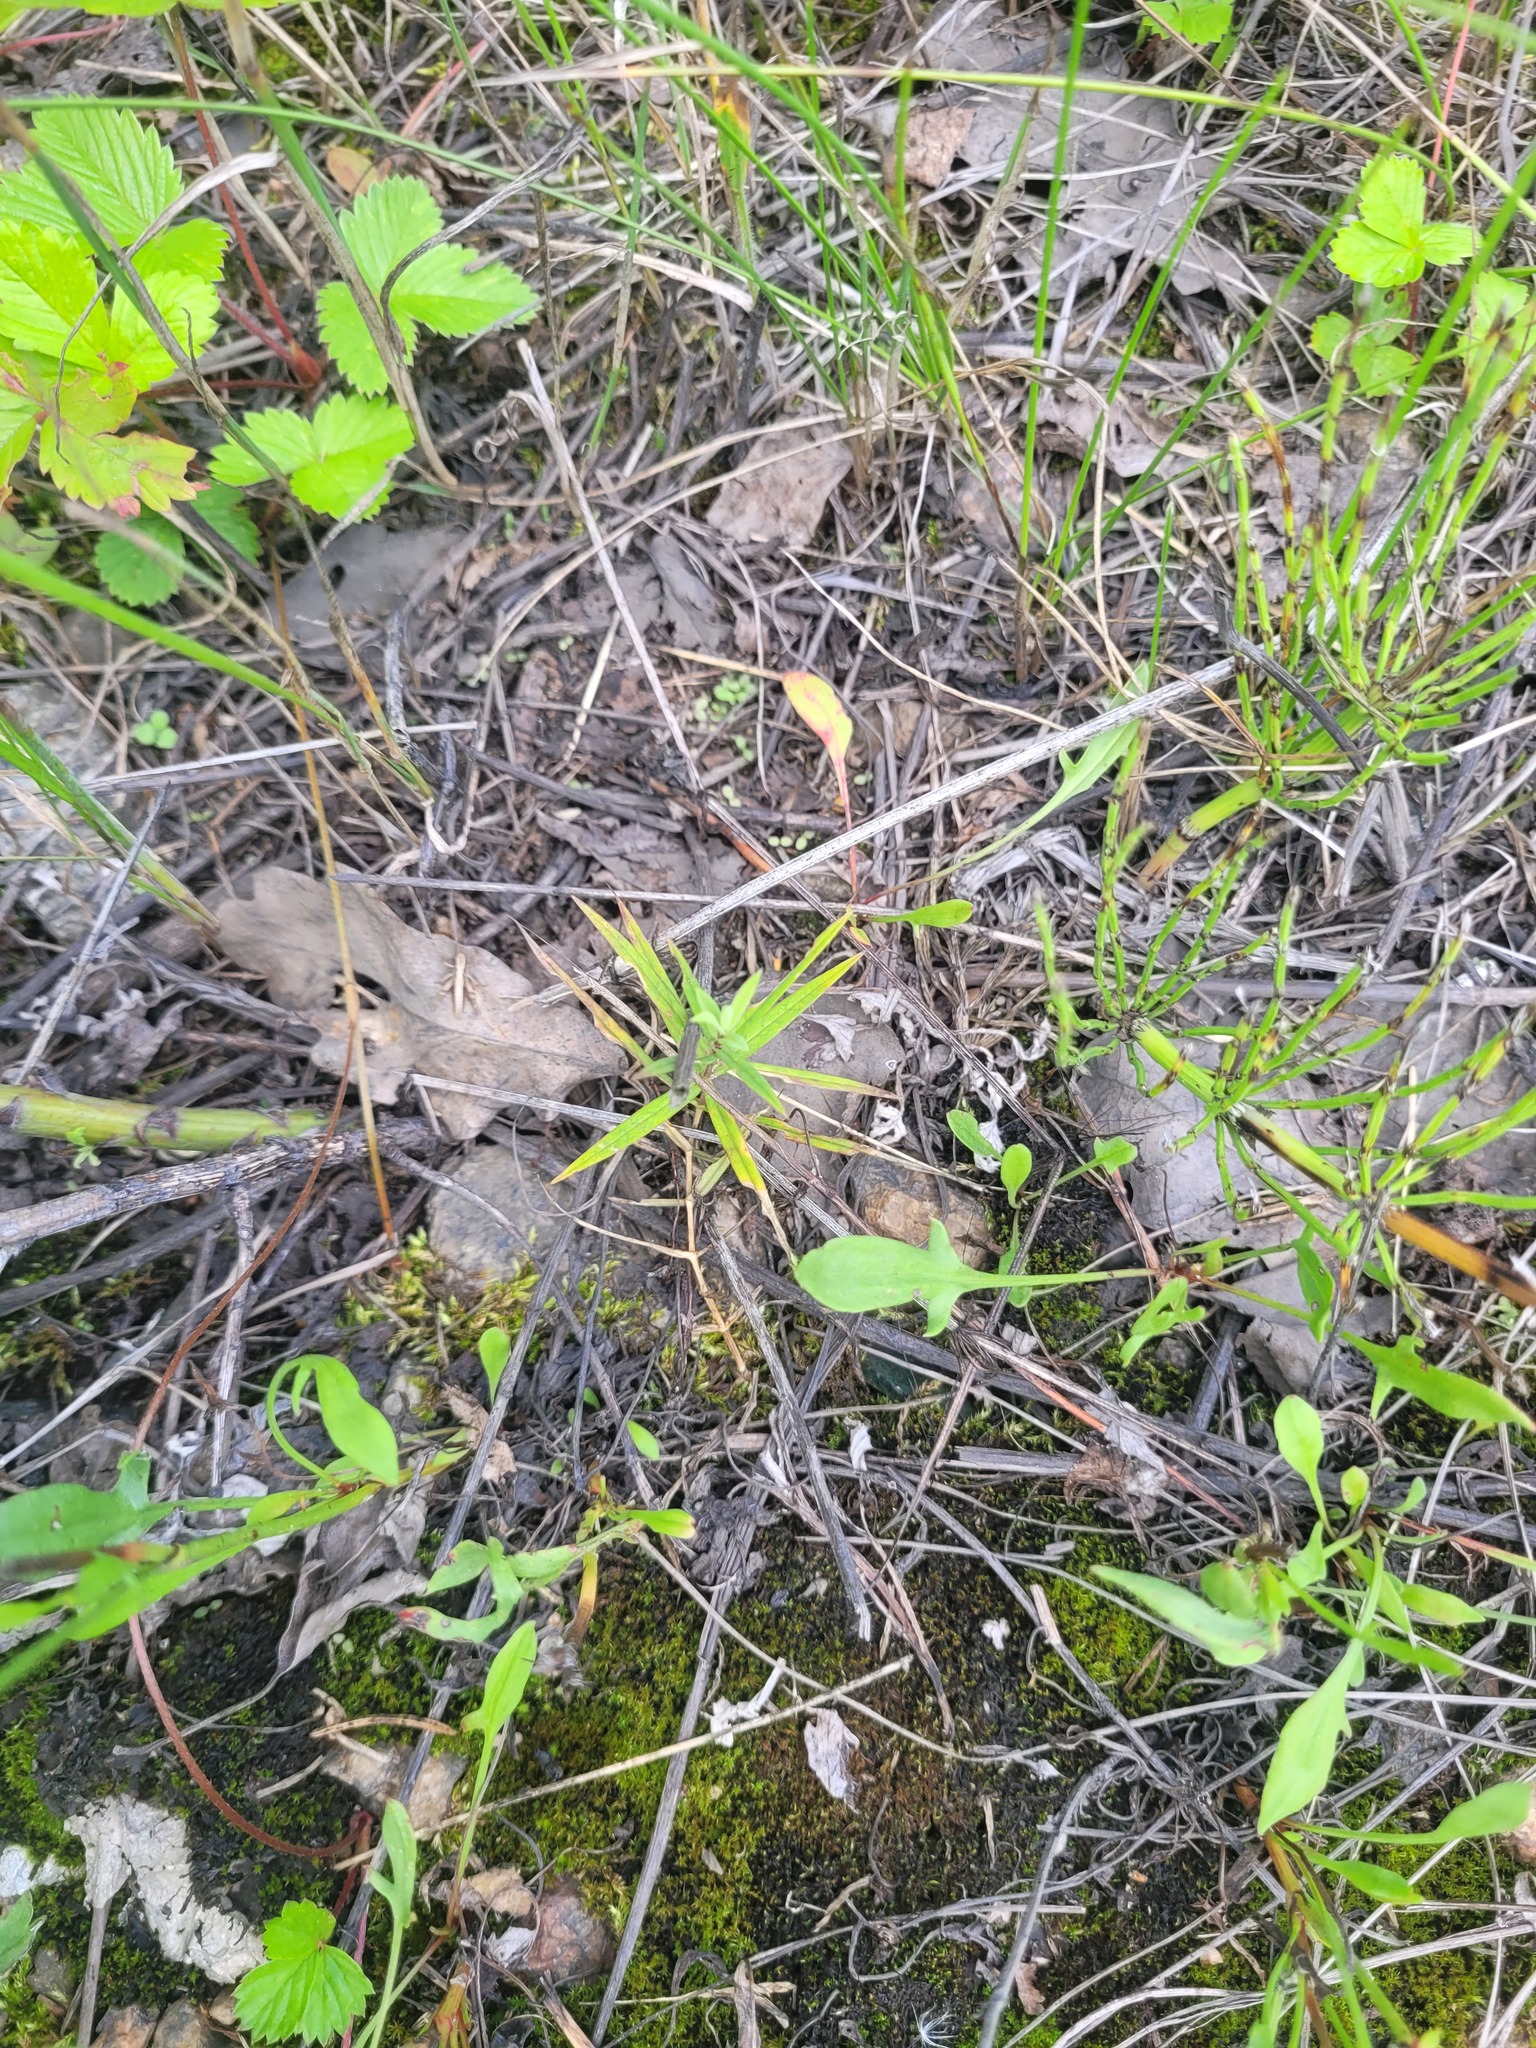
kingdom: Plantae
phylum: Tracheophyta
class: Magnoliopsida
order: Caryophyllales
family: Caryophyllaceae
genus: Rabelera
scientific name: Rabelera holostea
